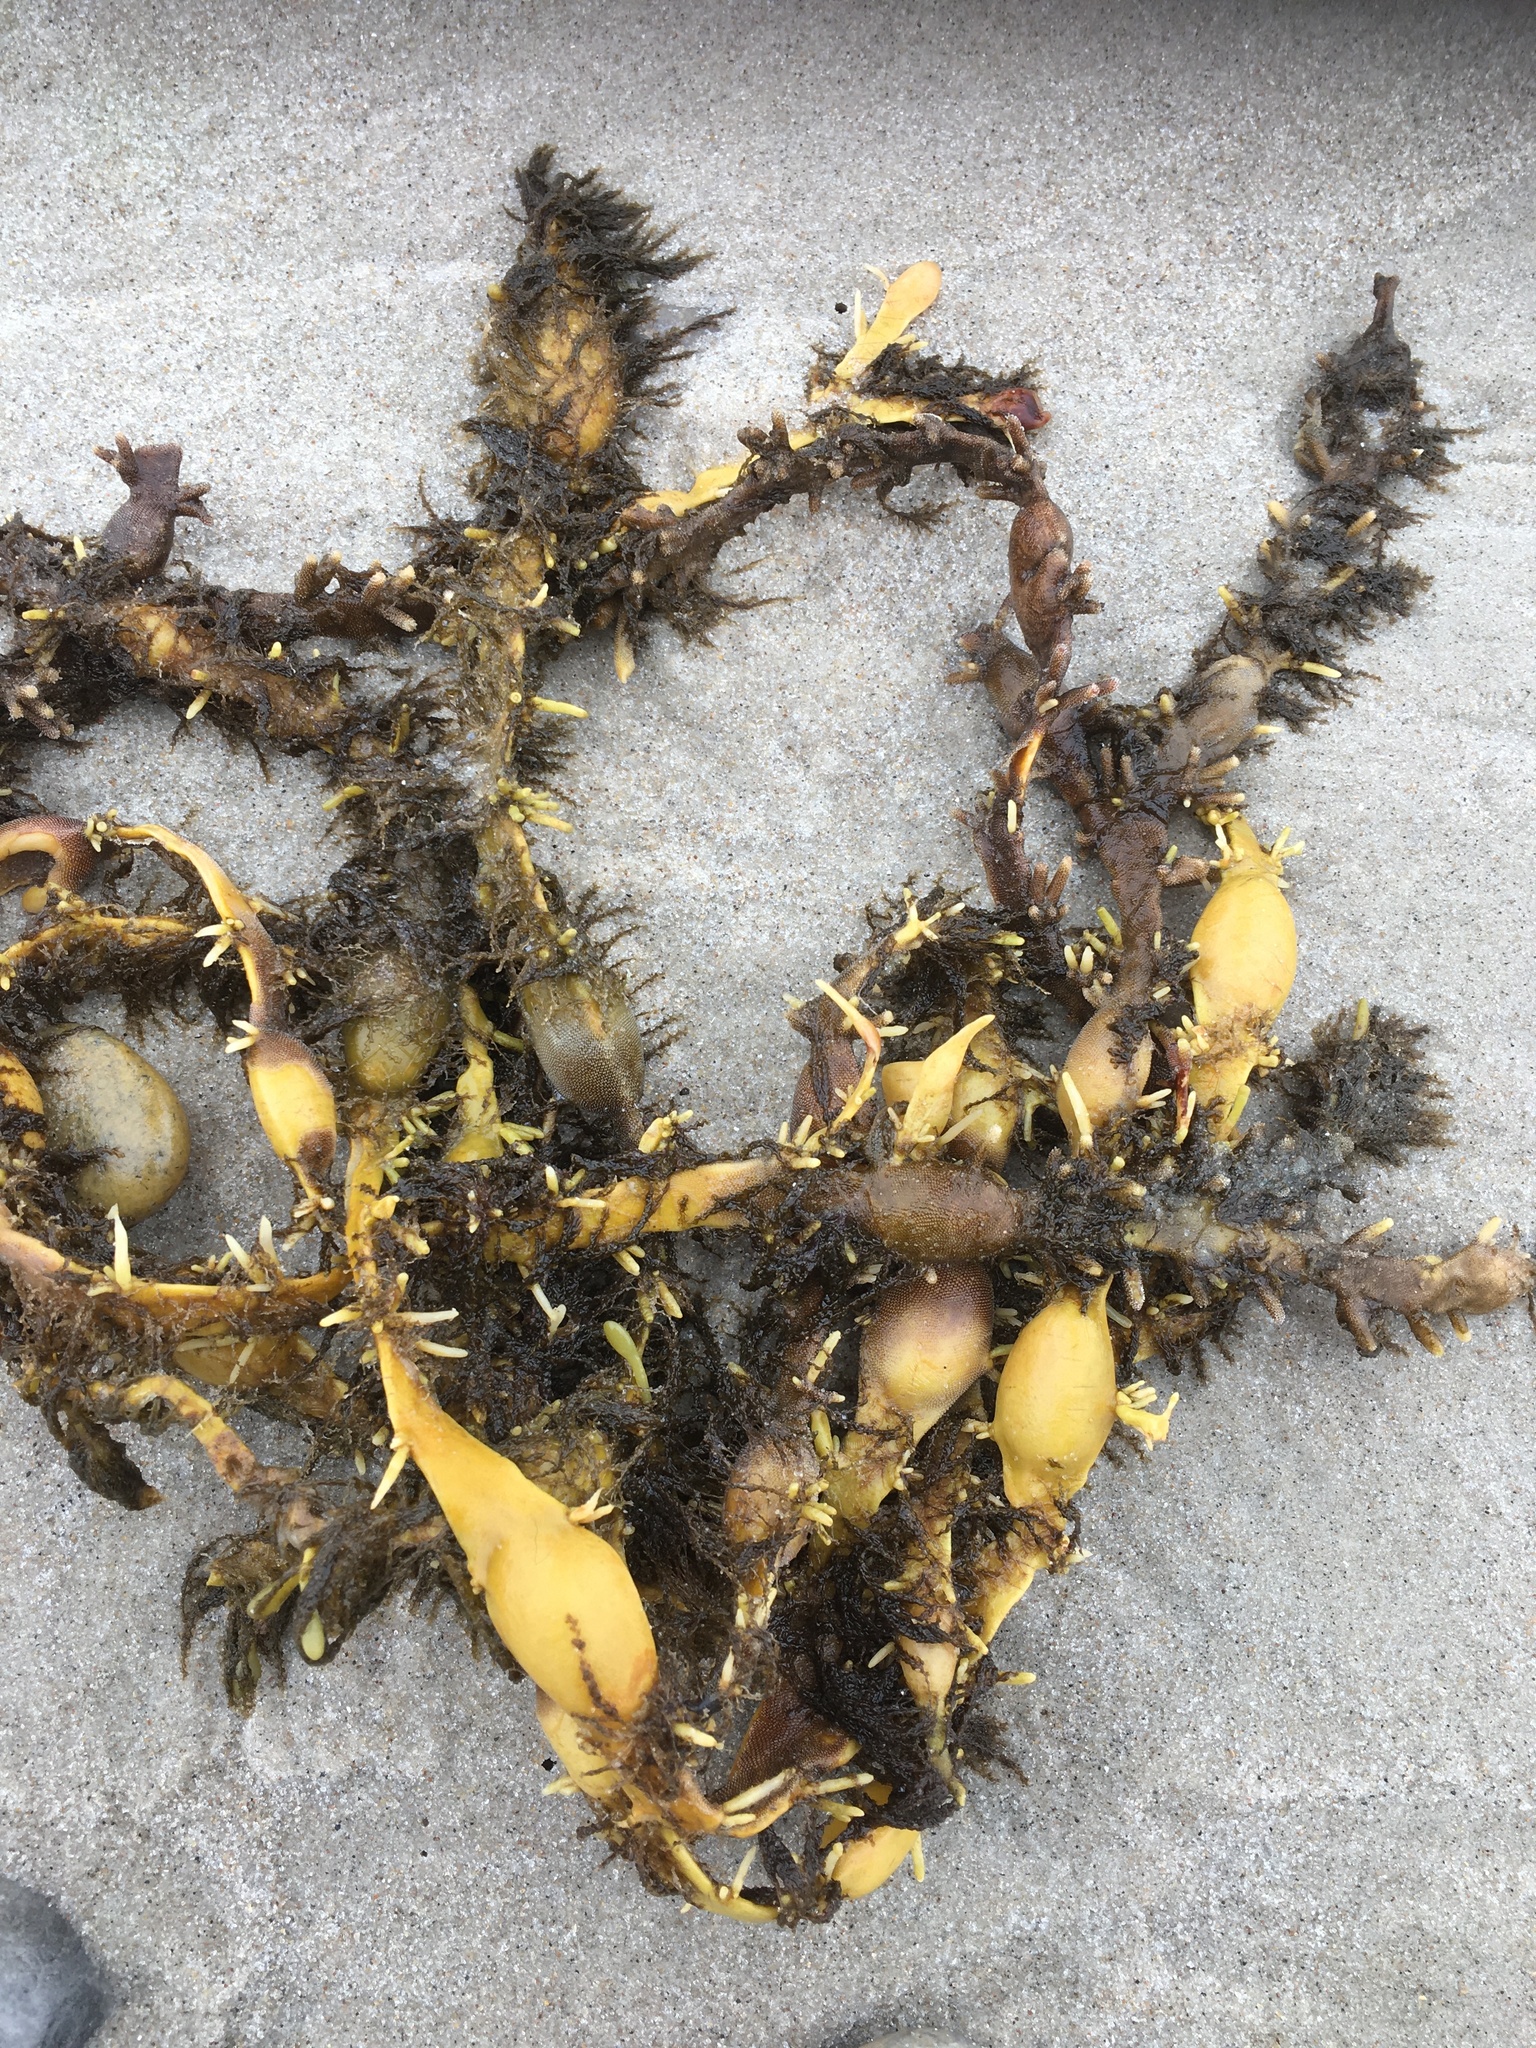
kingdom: Chromista
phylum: Ochrophyta
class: Phaeophyceae
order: Fucales
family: Fucaceae
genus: Ascophyllum
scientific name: Ascophyllum nodosum
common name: Knotted wrack
